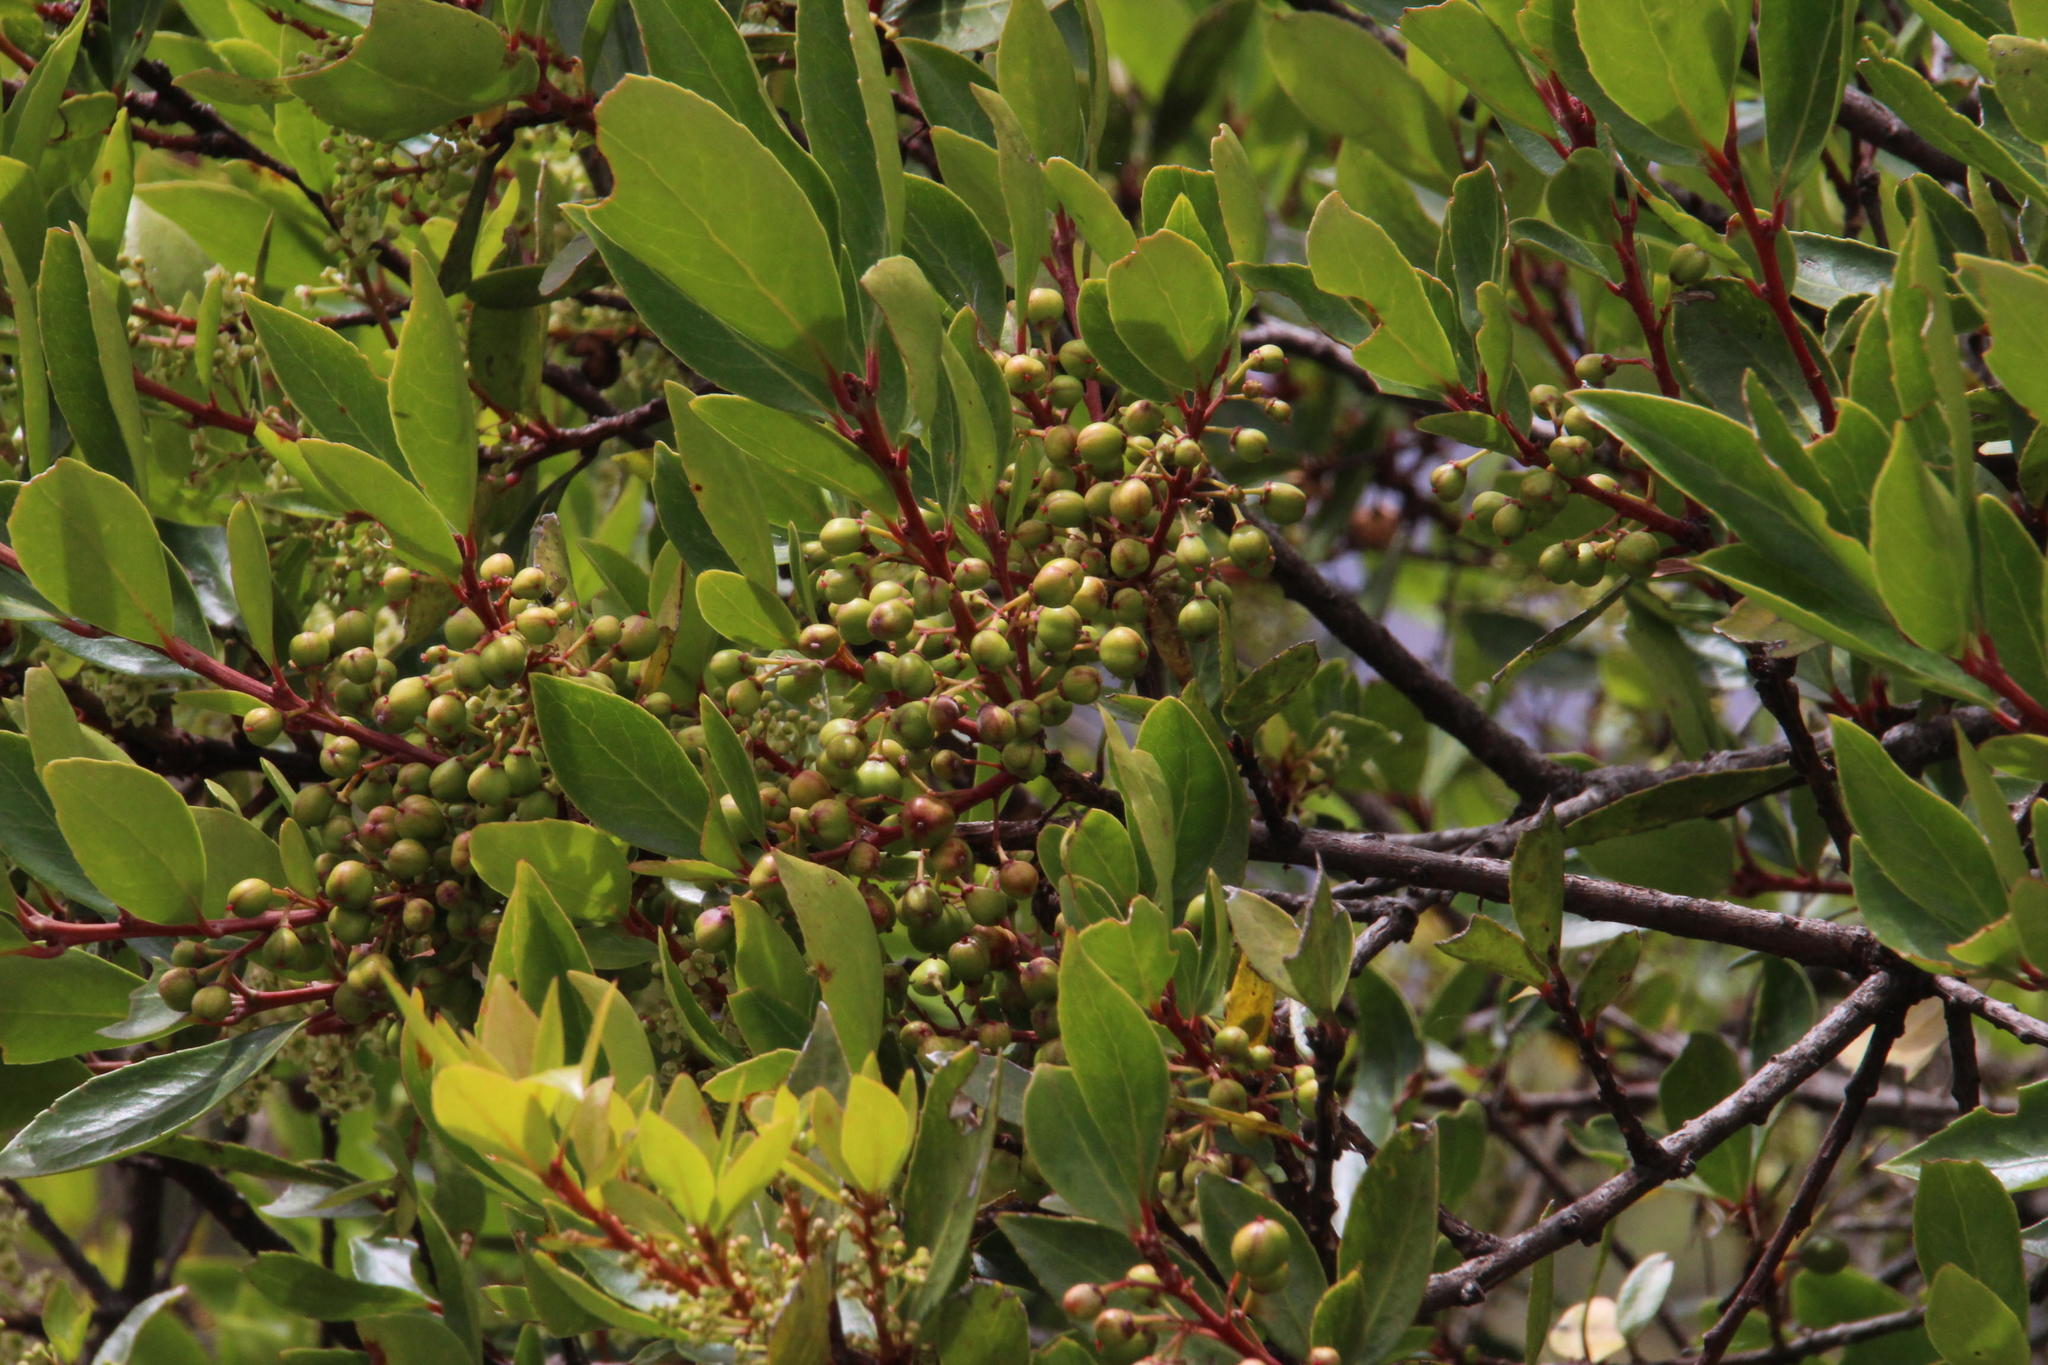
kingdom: Plantae
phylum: Tracheophyta
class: Magnoliopsida
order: Celastrales
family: Celastraceae
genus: Maytenus
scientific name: Maytenus jelskii
